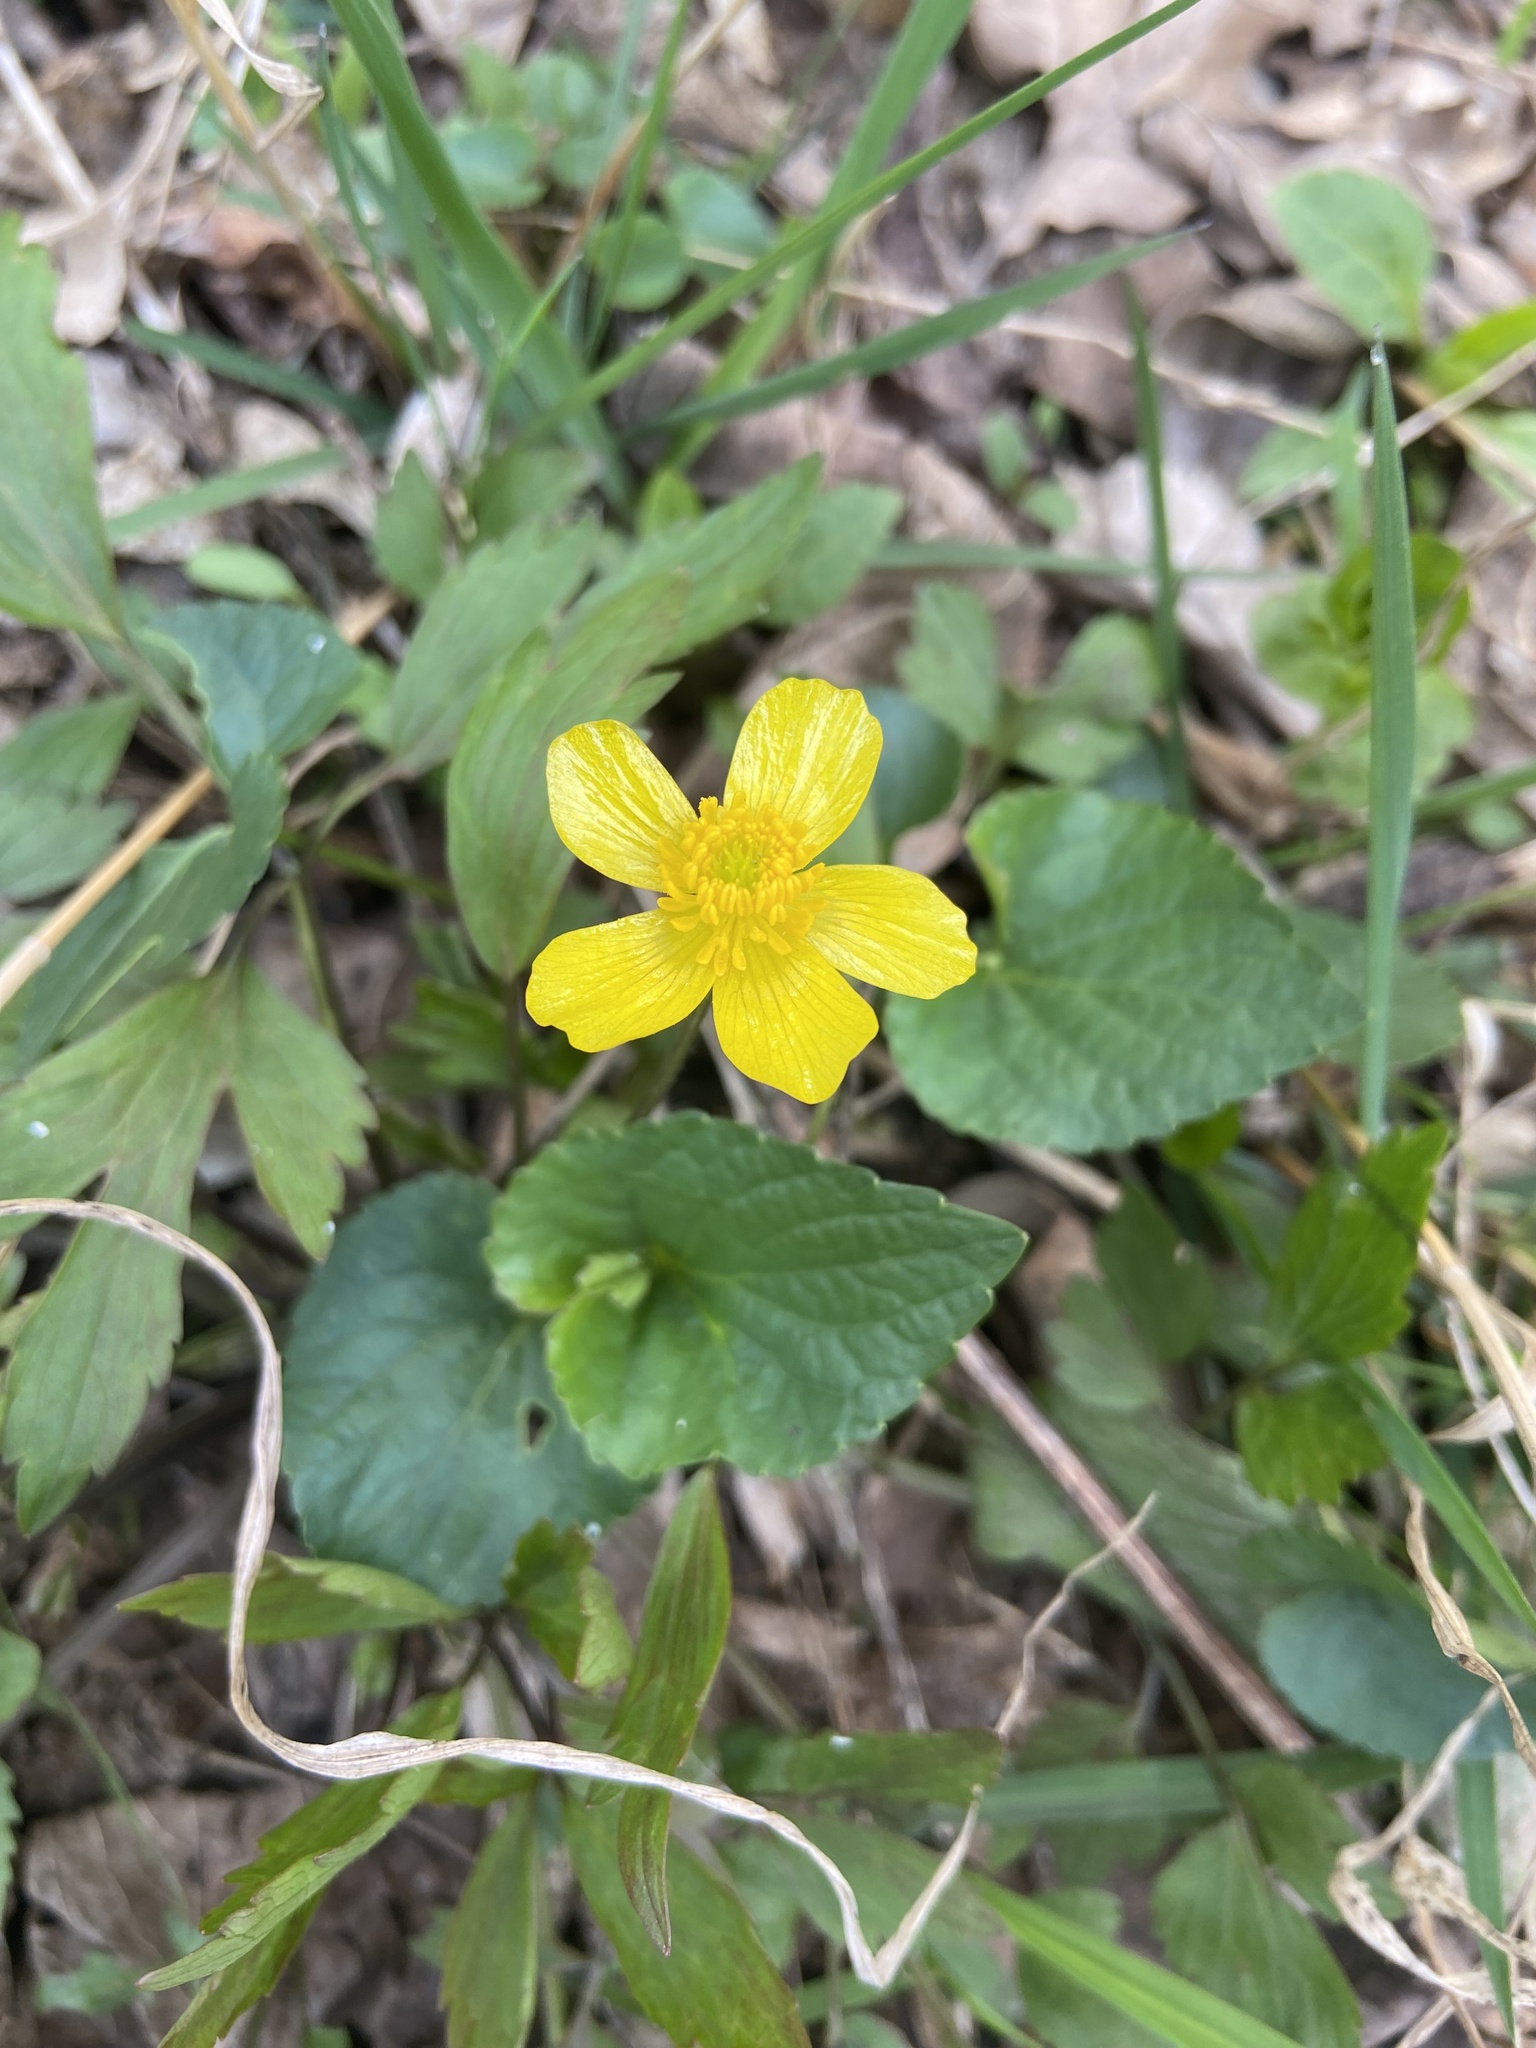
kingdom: Plantae
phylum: Tracheophyta
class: Magnoliopsida
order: Ranunculales
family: Ranunculaceae
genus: Ranunculus
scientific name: Ranunculus hispidus
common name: Bristly buttercup
